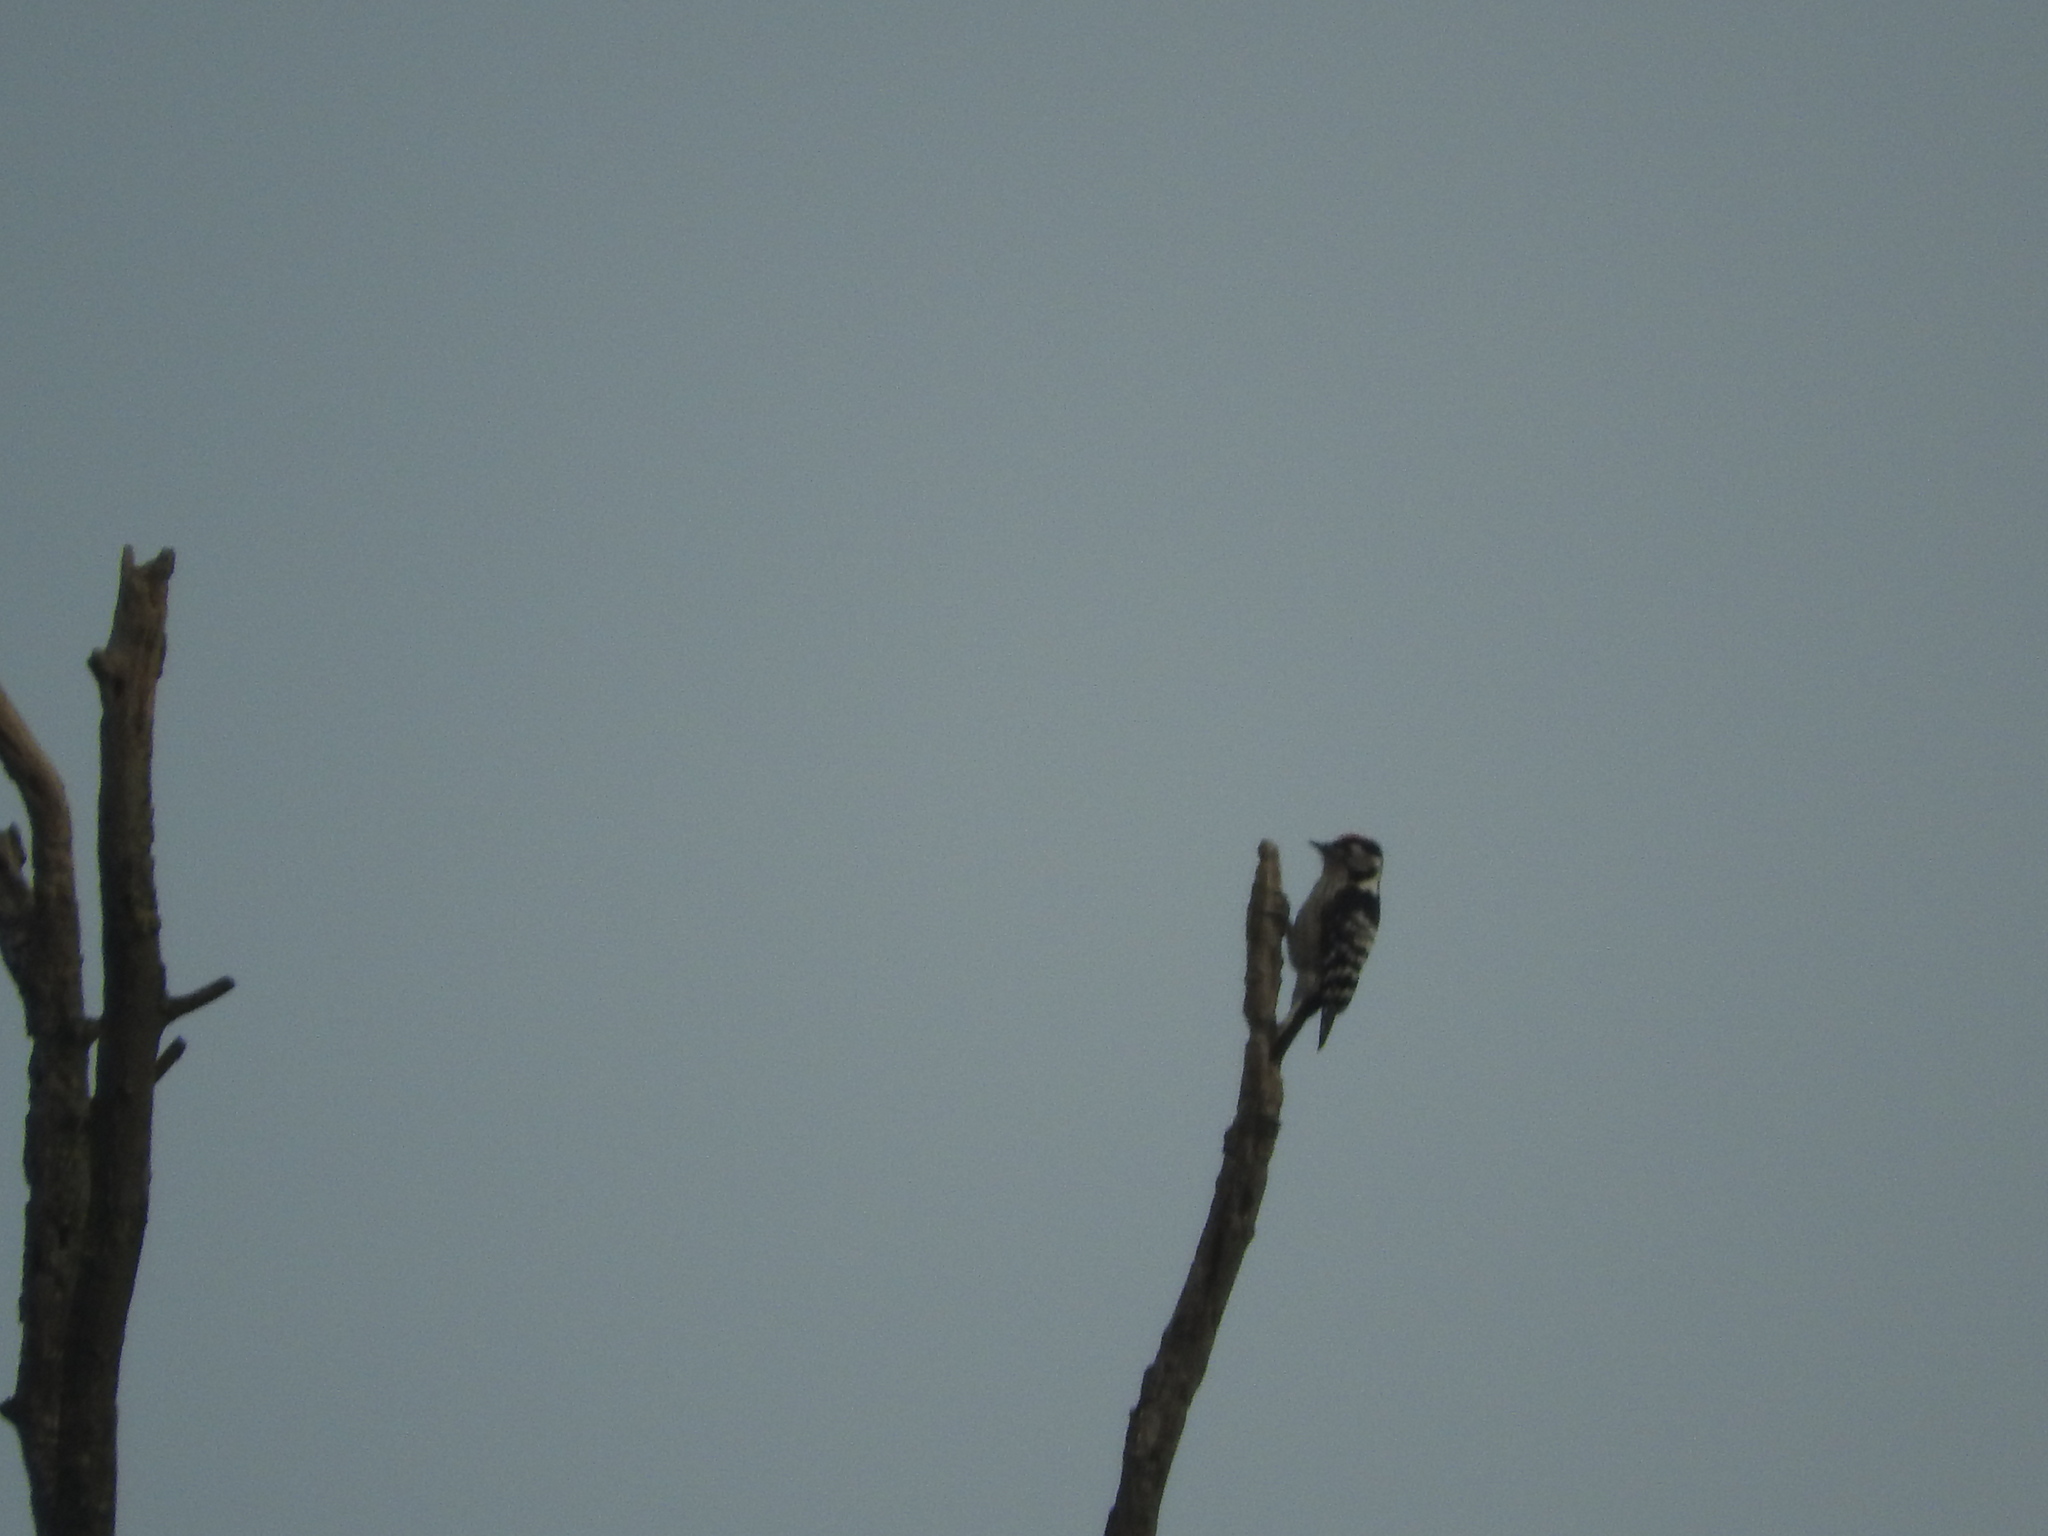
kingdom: Animalia
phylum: Chordata
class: Aves
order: Piciformes
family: Picidae
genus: Dryobates
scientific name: Dryobates minor
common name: Lesser spotted woodpecker
